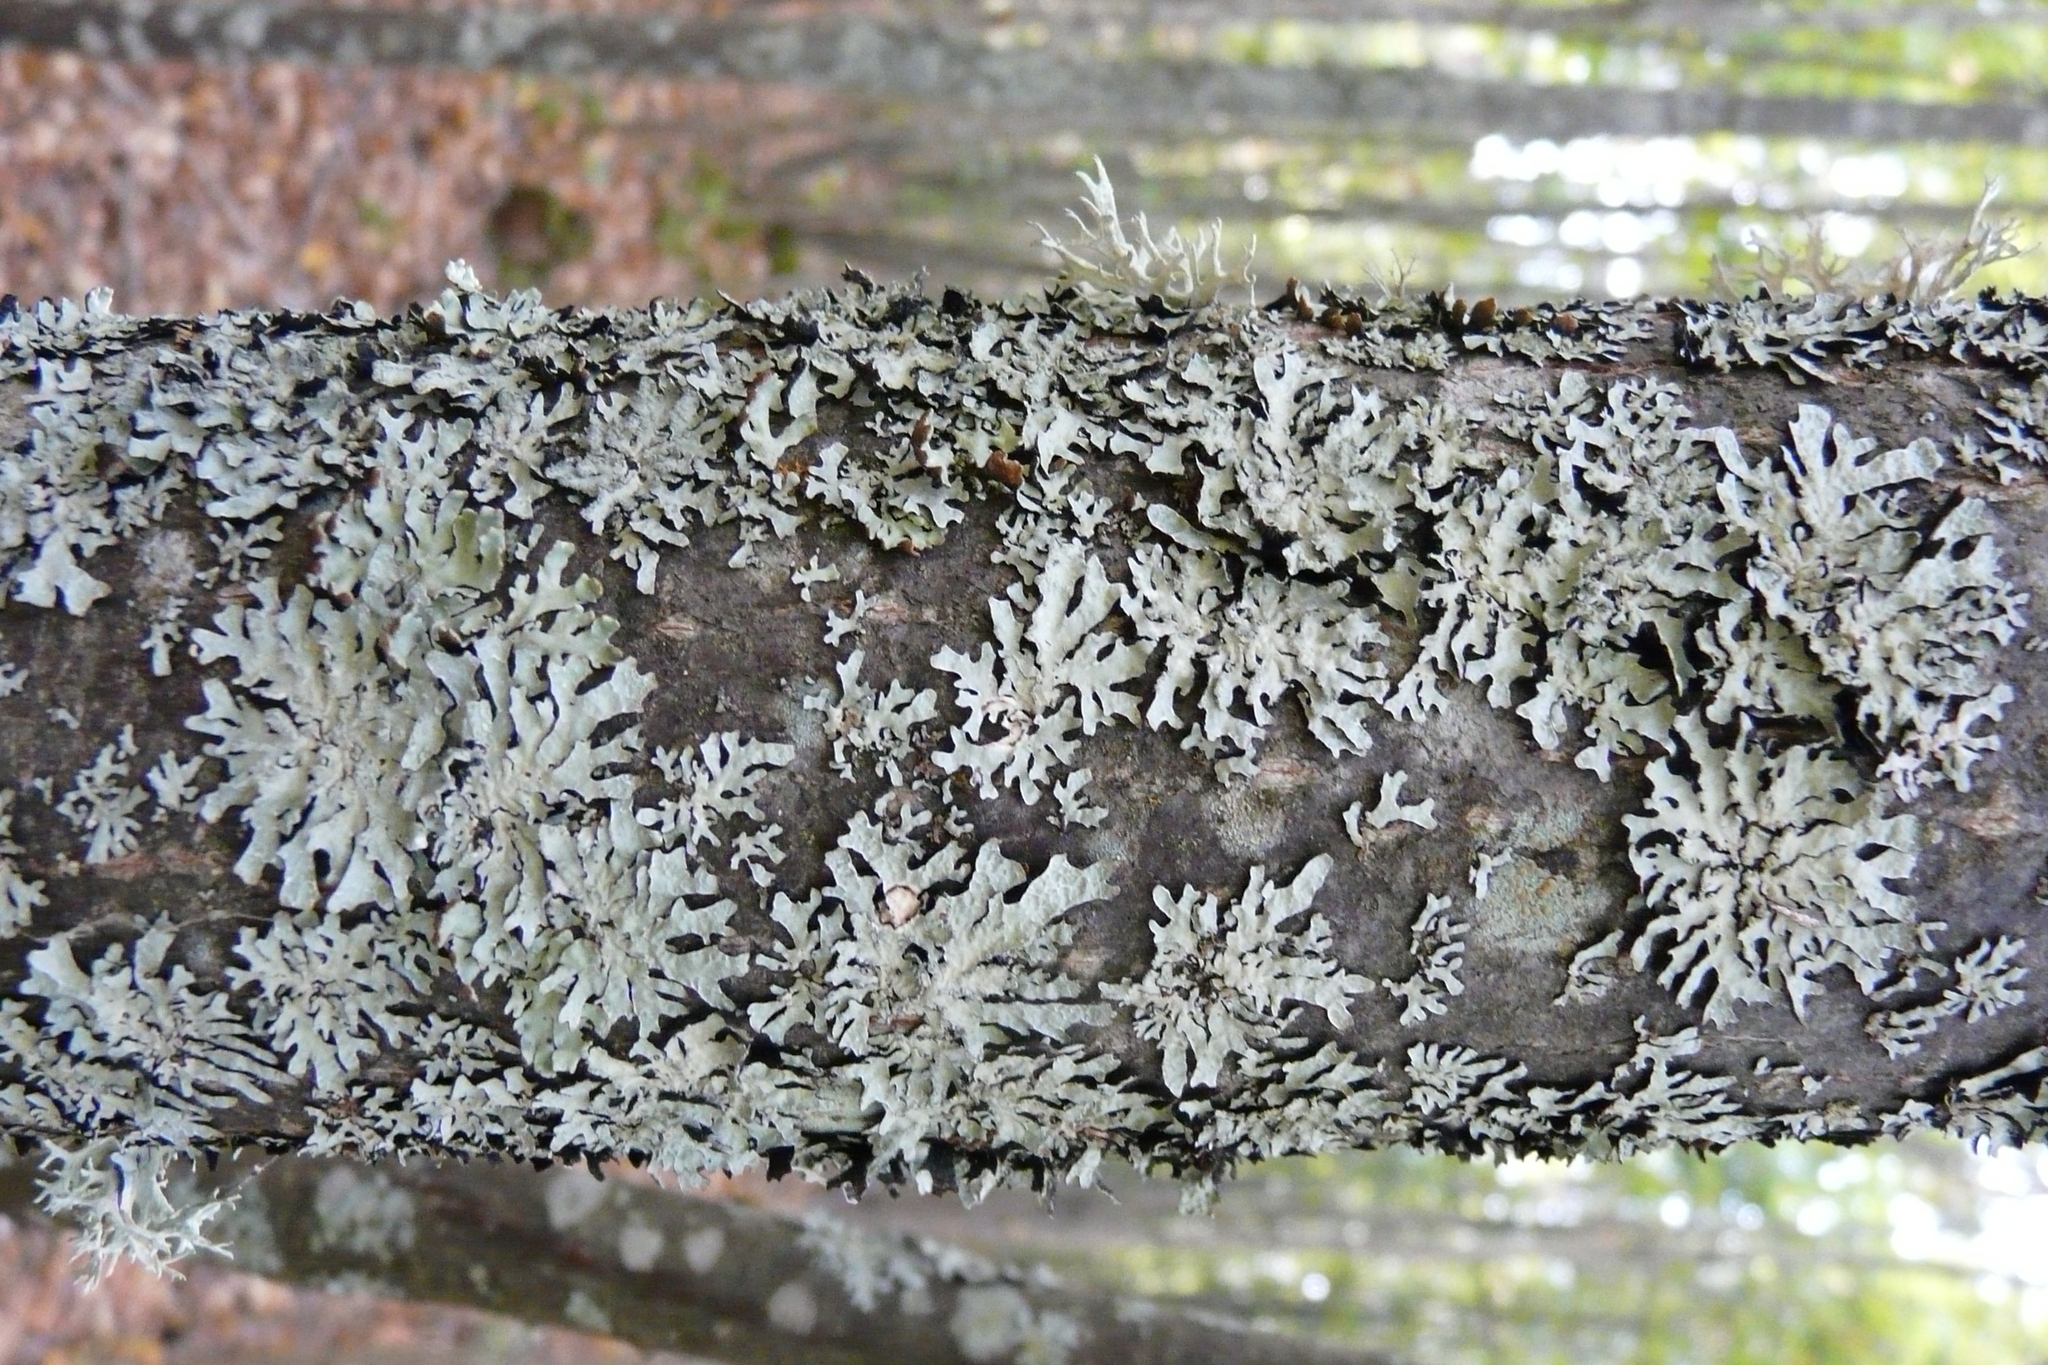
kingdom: Fungi
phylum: Ascomycota
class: Lecanoromycetes
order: Lecanorales
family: Parmeliaceae
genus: Parmelia
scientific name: Parmelia sulcata
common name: Netted shield lichen
